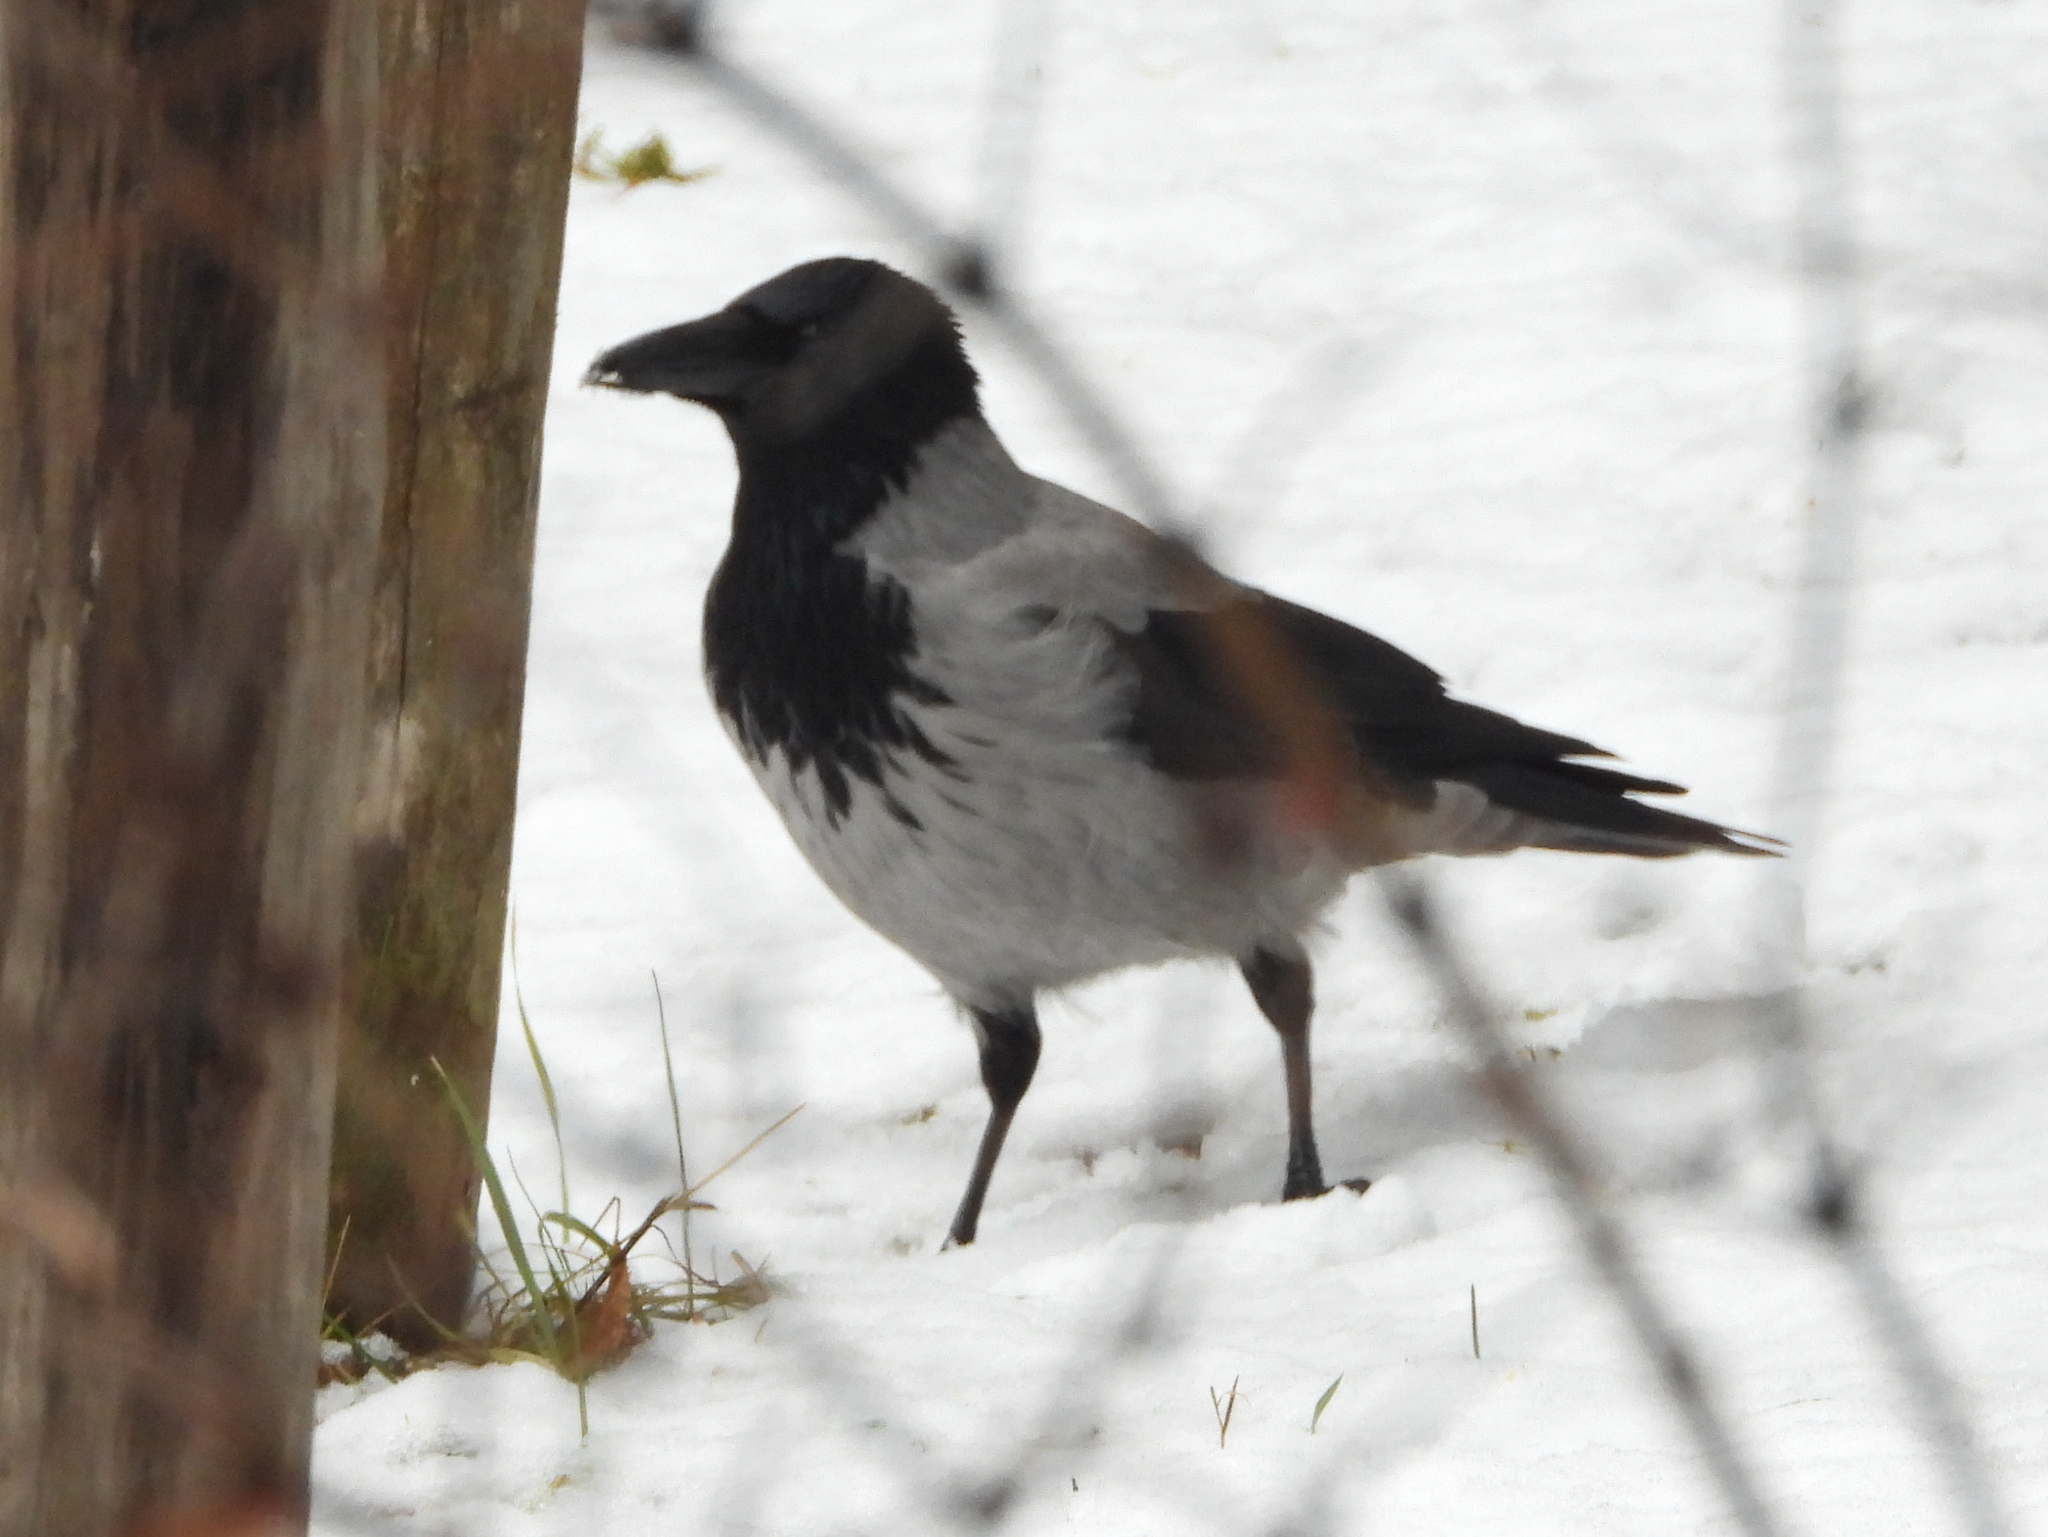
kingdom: Animalia
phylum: Chordata
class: Aves
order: Passeriformes
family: Corvidae
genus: Corvus
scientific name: Corvus cornix
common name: Hooded crow
